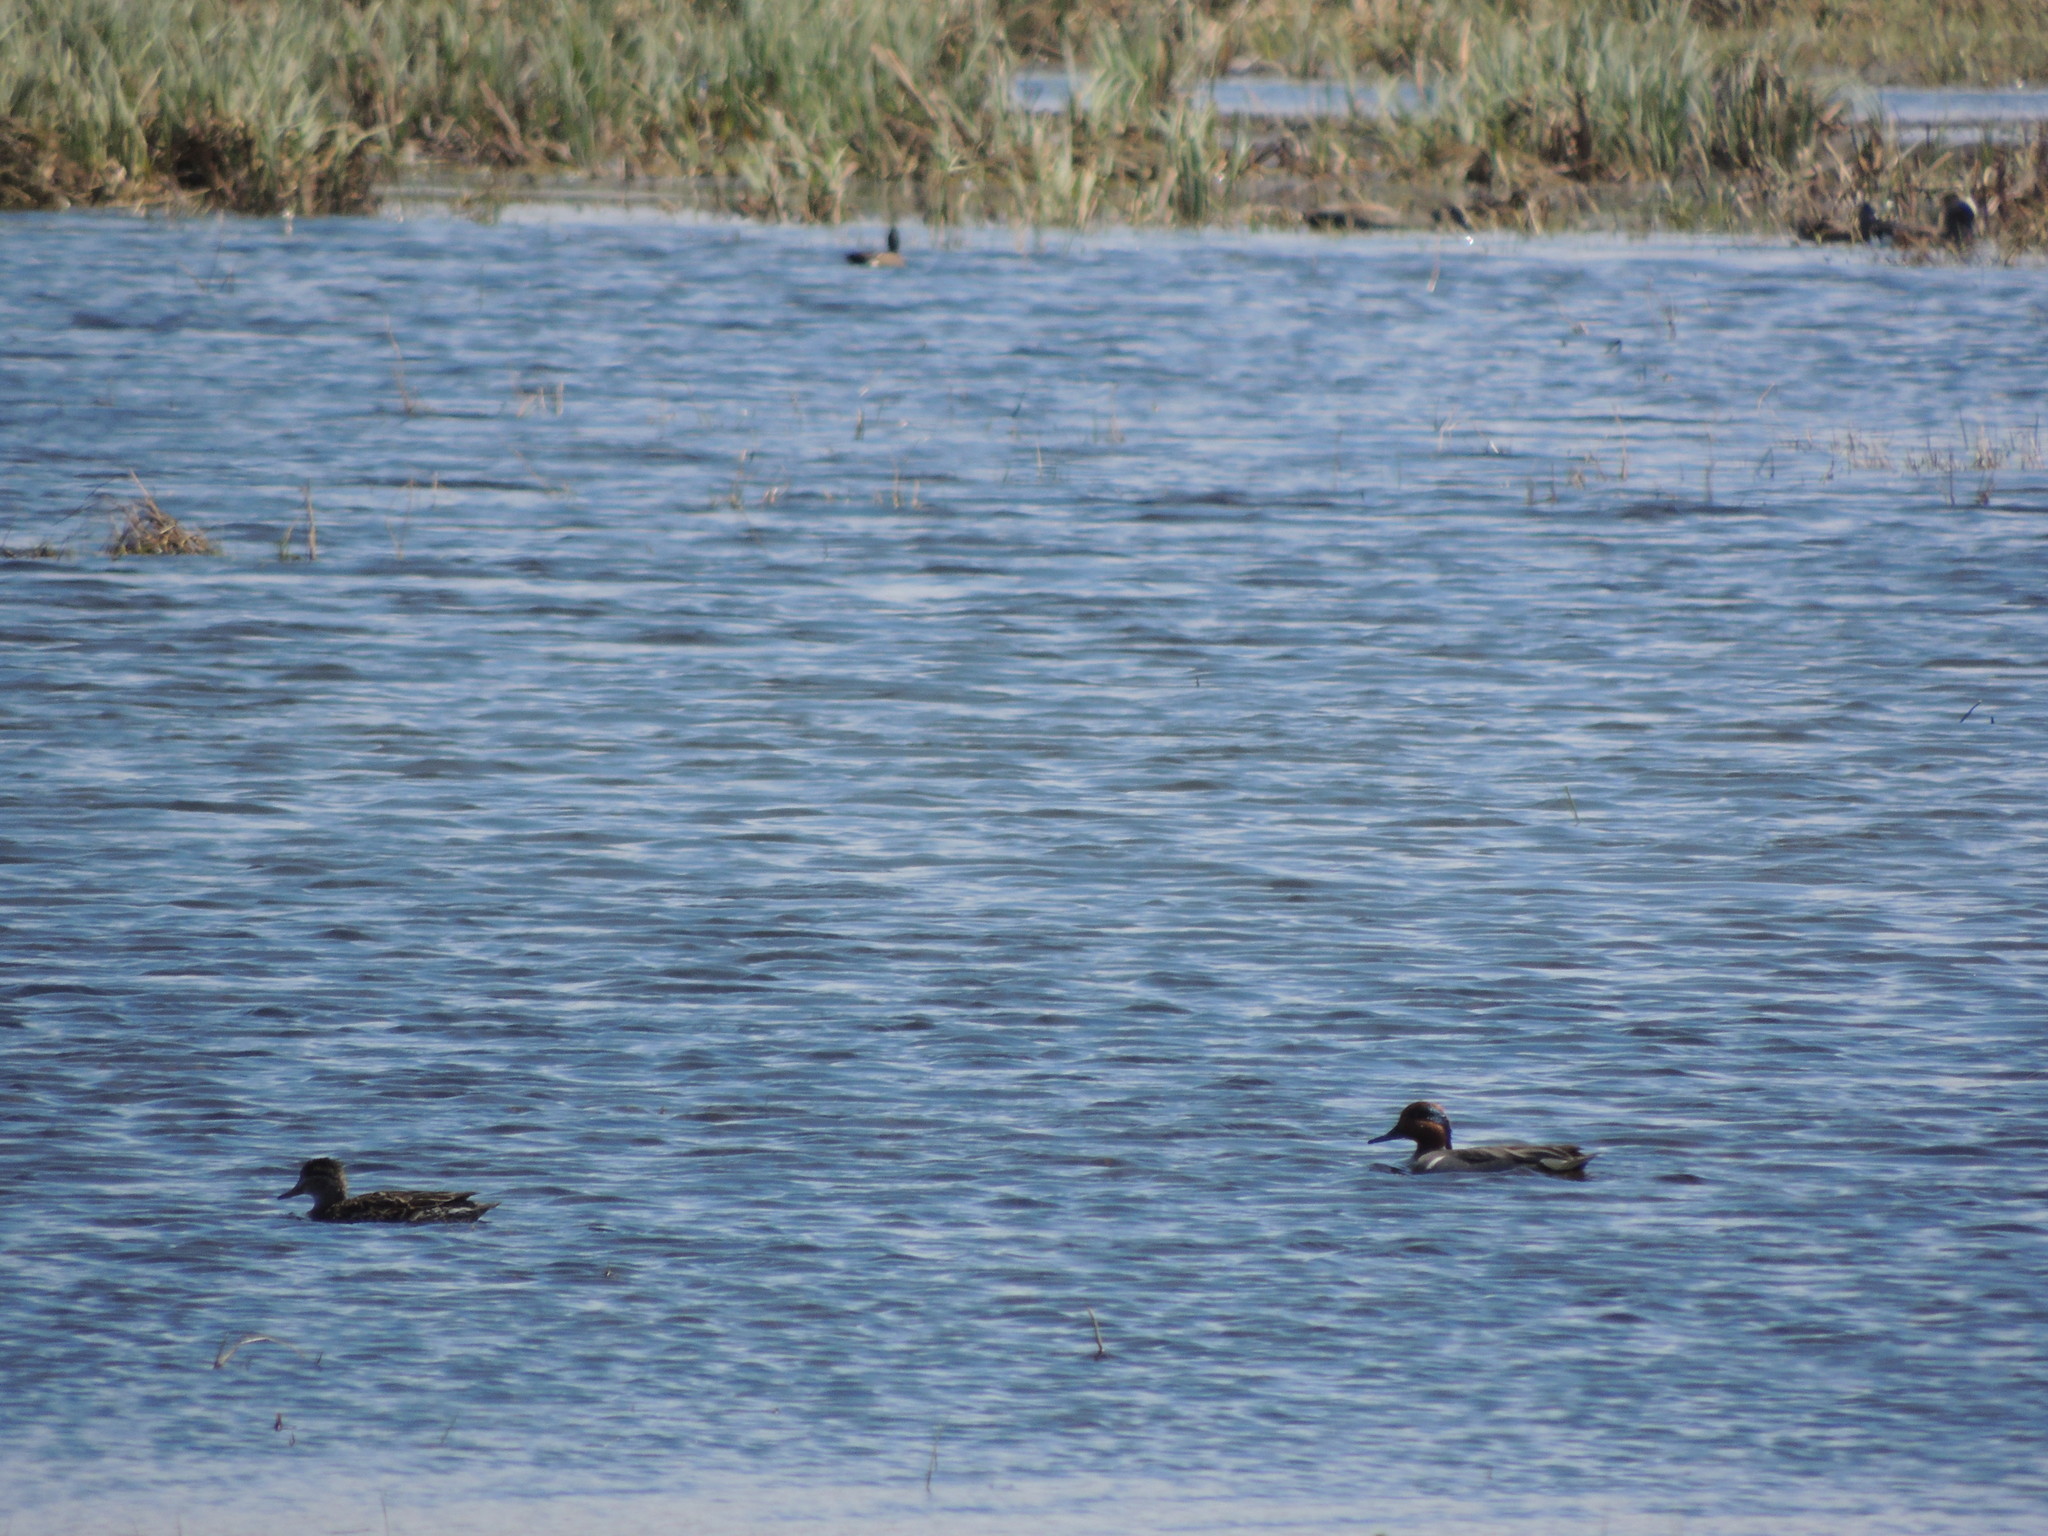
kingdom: Animalia
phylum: Chordata
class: Aves
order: Anseriformes
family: Anatidae
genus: Anas
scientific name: Anas crecca
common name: Eurasian teal
